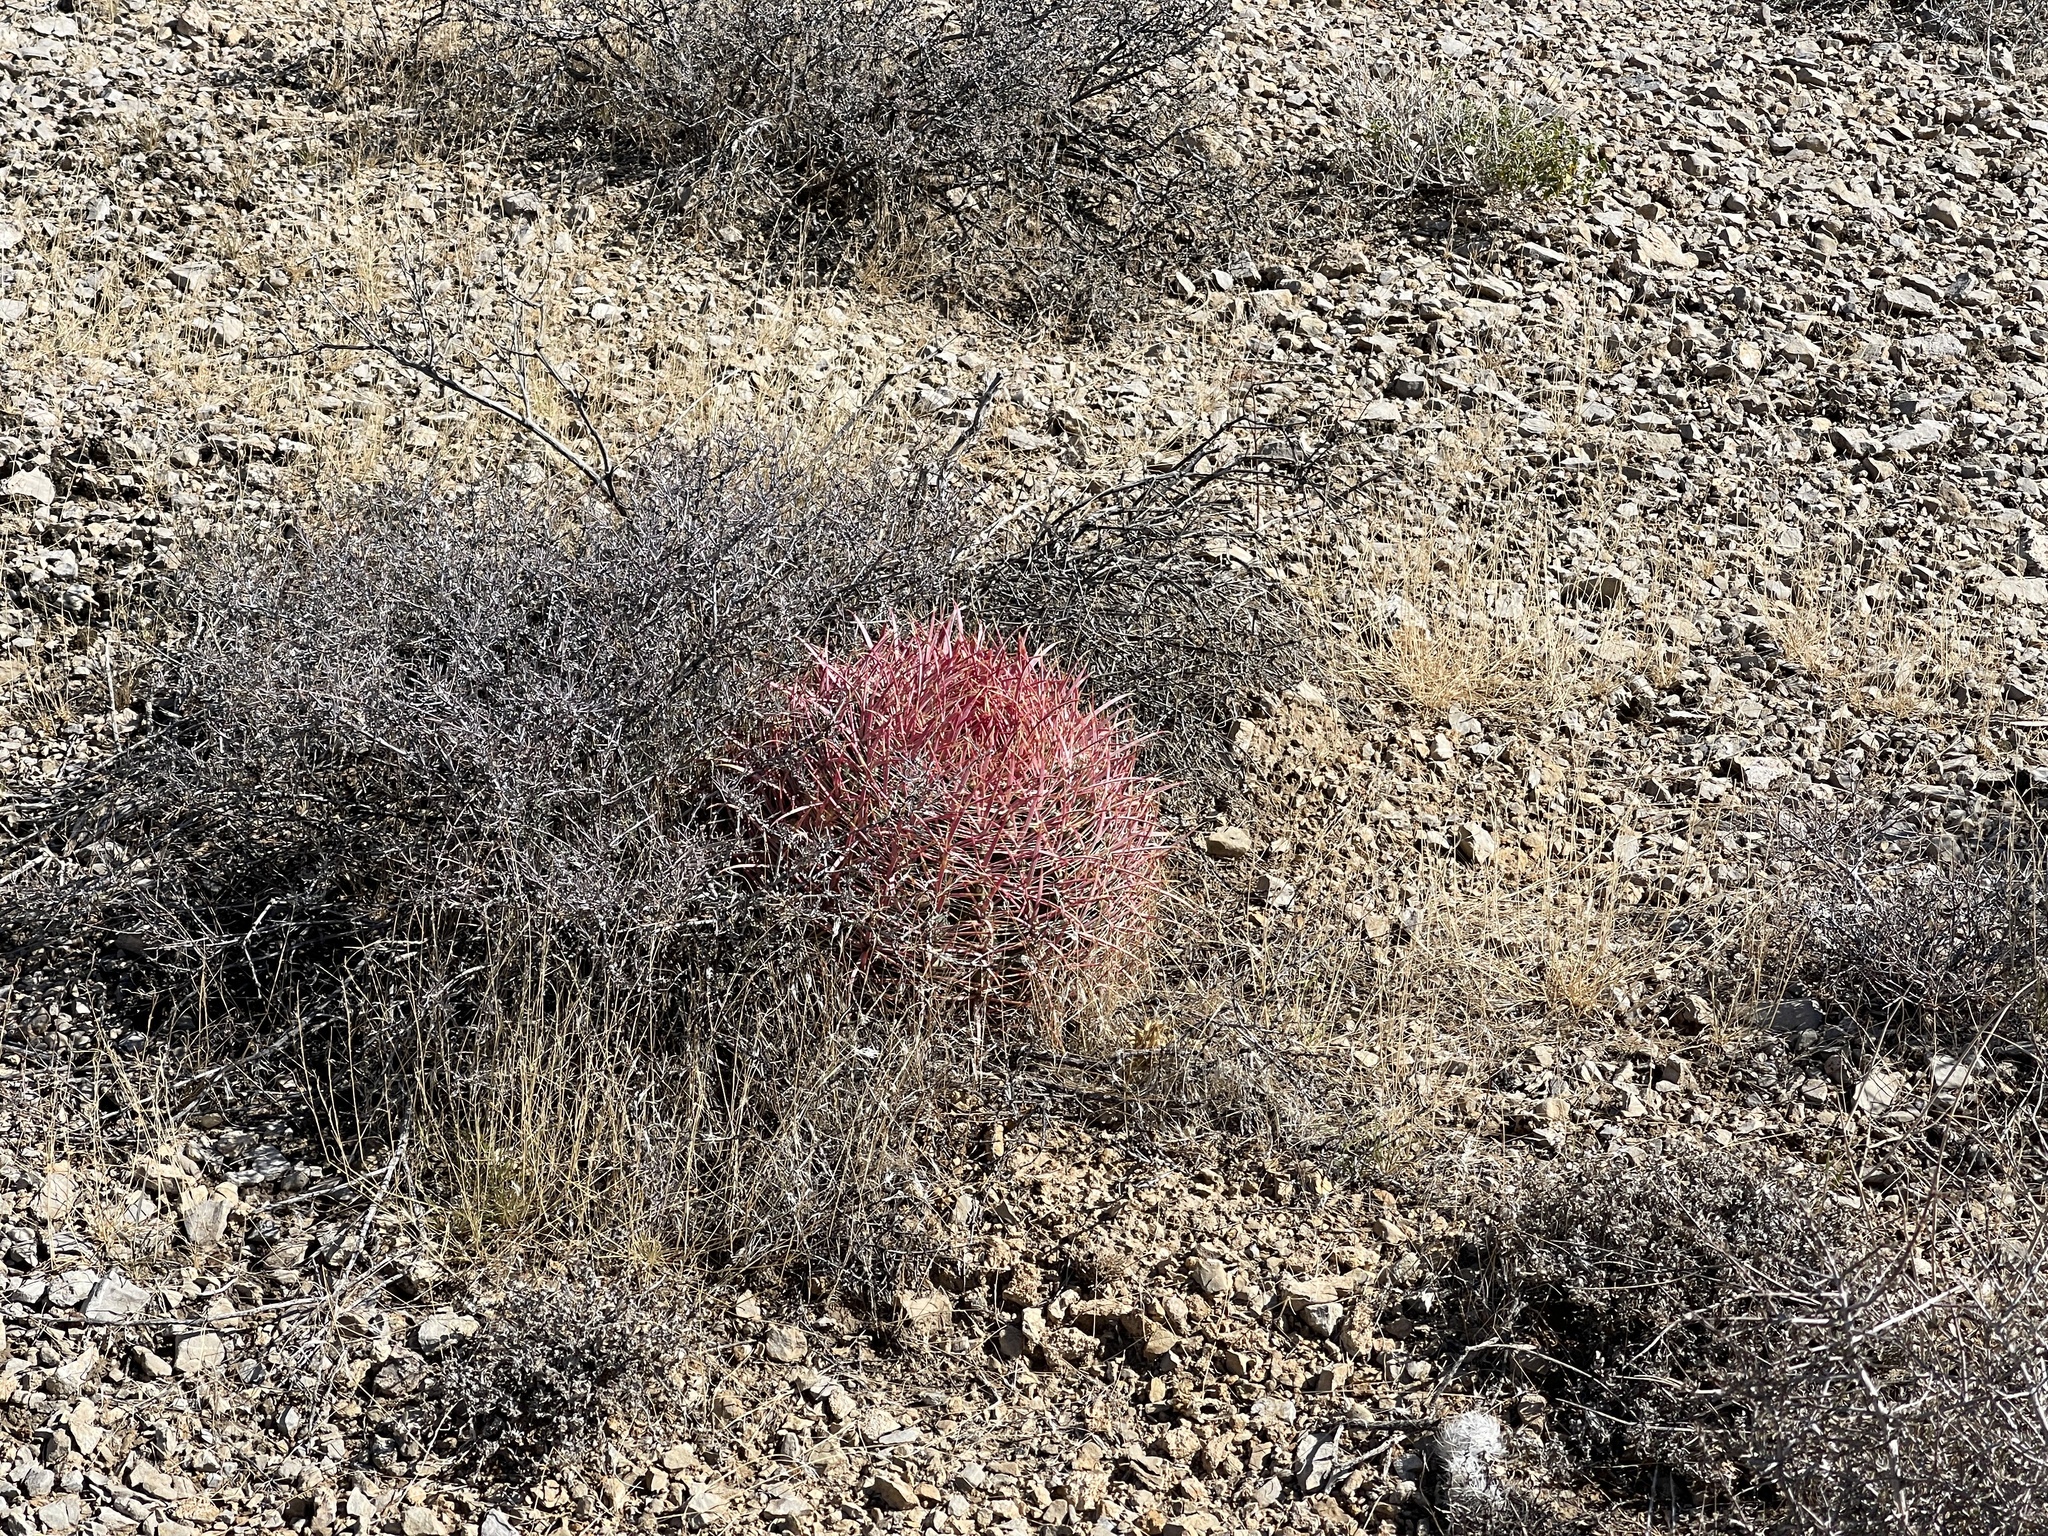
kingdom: Plantae
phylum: Tracheophyta
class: Magnoliopsida
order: Caryophyllales
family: Cactaceae
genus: Ferocactus
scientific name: Ferocactus cylindraceus
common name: California barrel cactus
